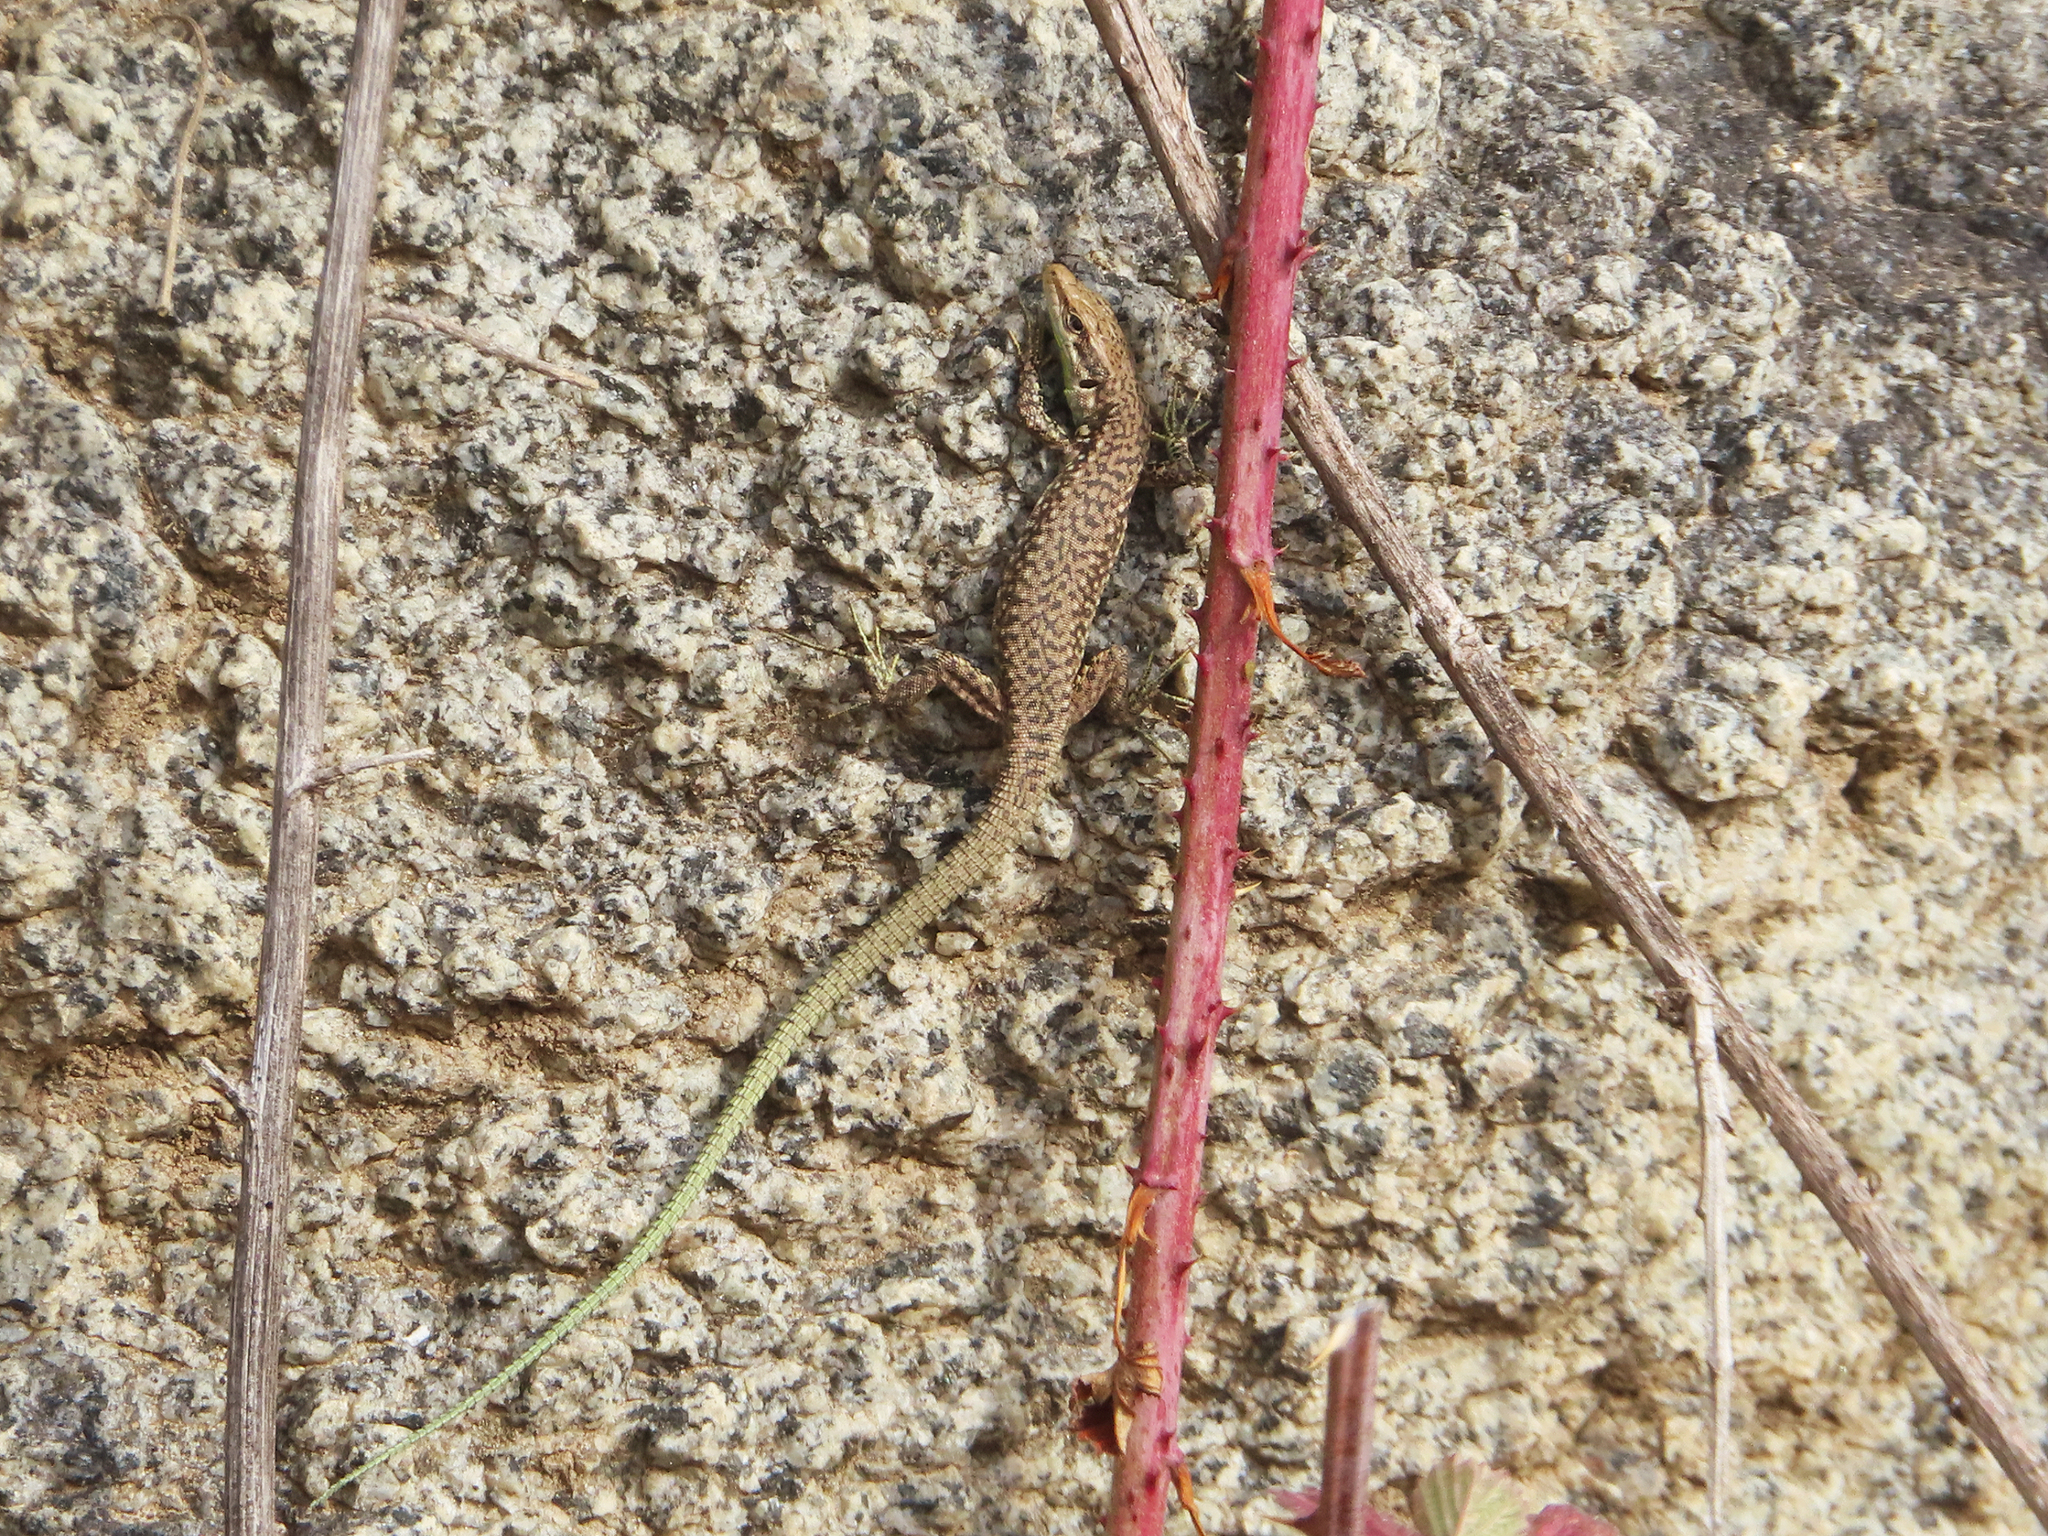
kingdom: Animalia
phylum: Chordata
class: Squamata
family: Lacertidae
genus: Darevskia
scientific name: Darevskia raddei
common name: Radde's lizard
